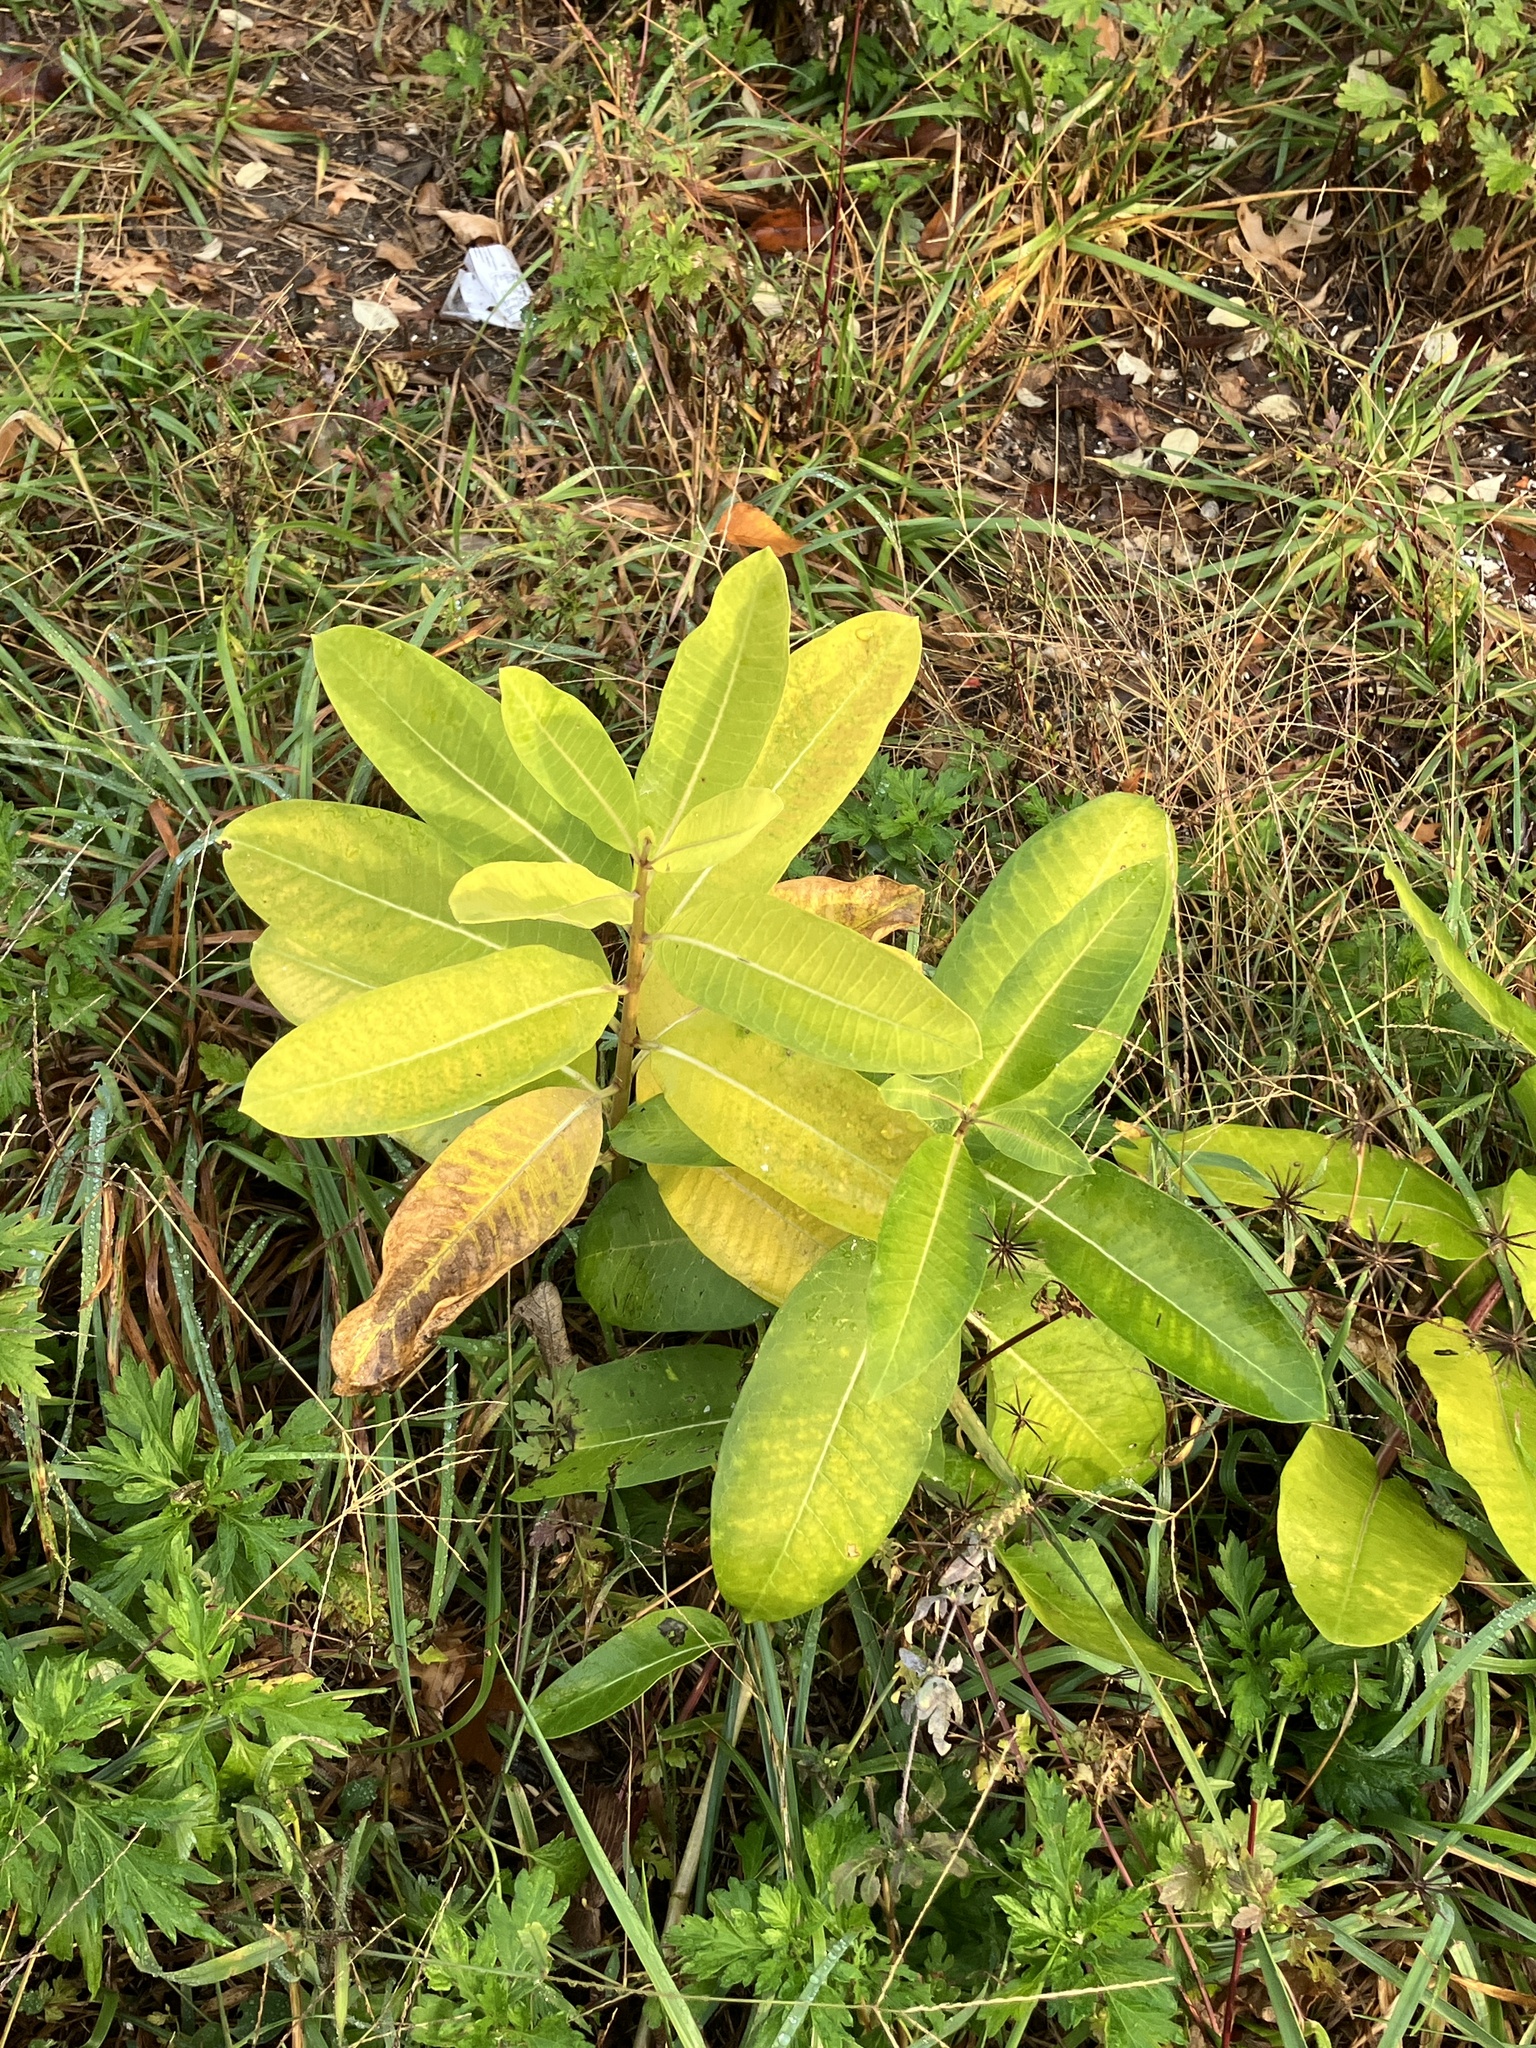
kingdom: Plantae
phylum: Tracheophyta
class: Magnoliopsida
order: Gentianales
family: Apocynaceae
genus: Asclepias
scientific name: Asclepias syriaca
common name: Common milkweed
